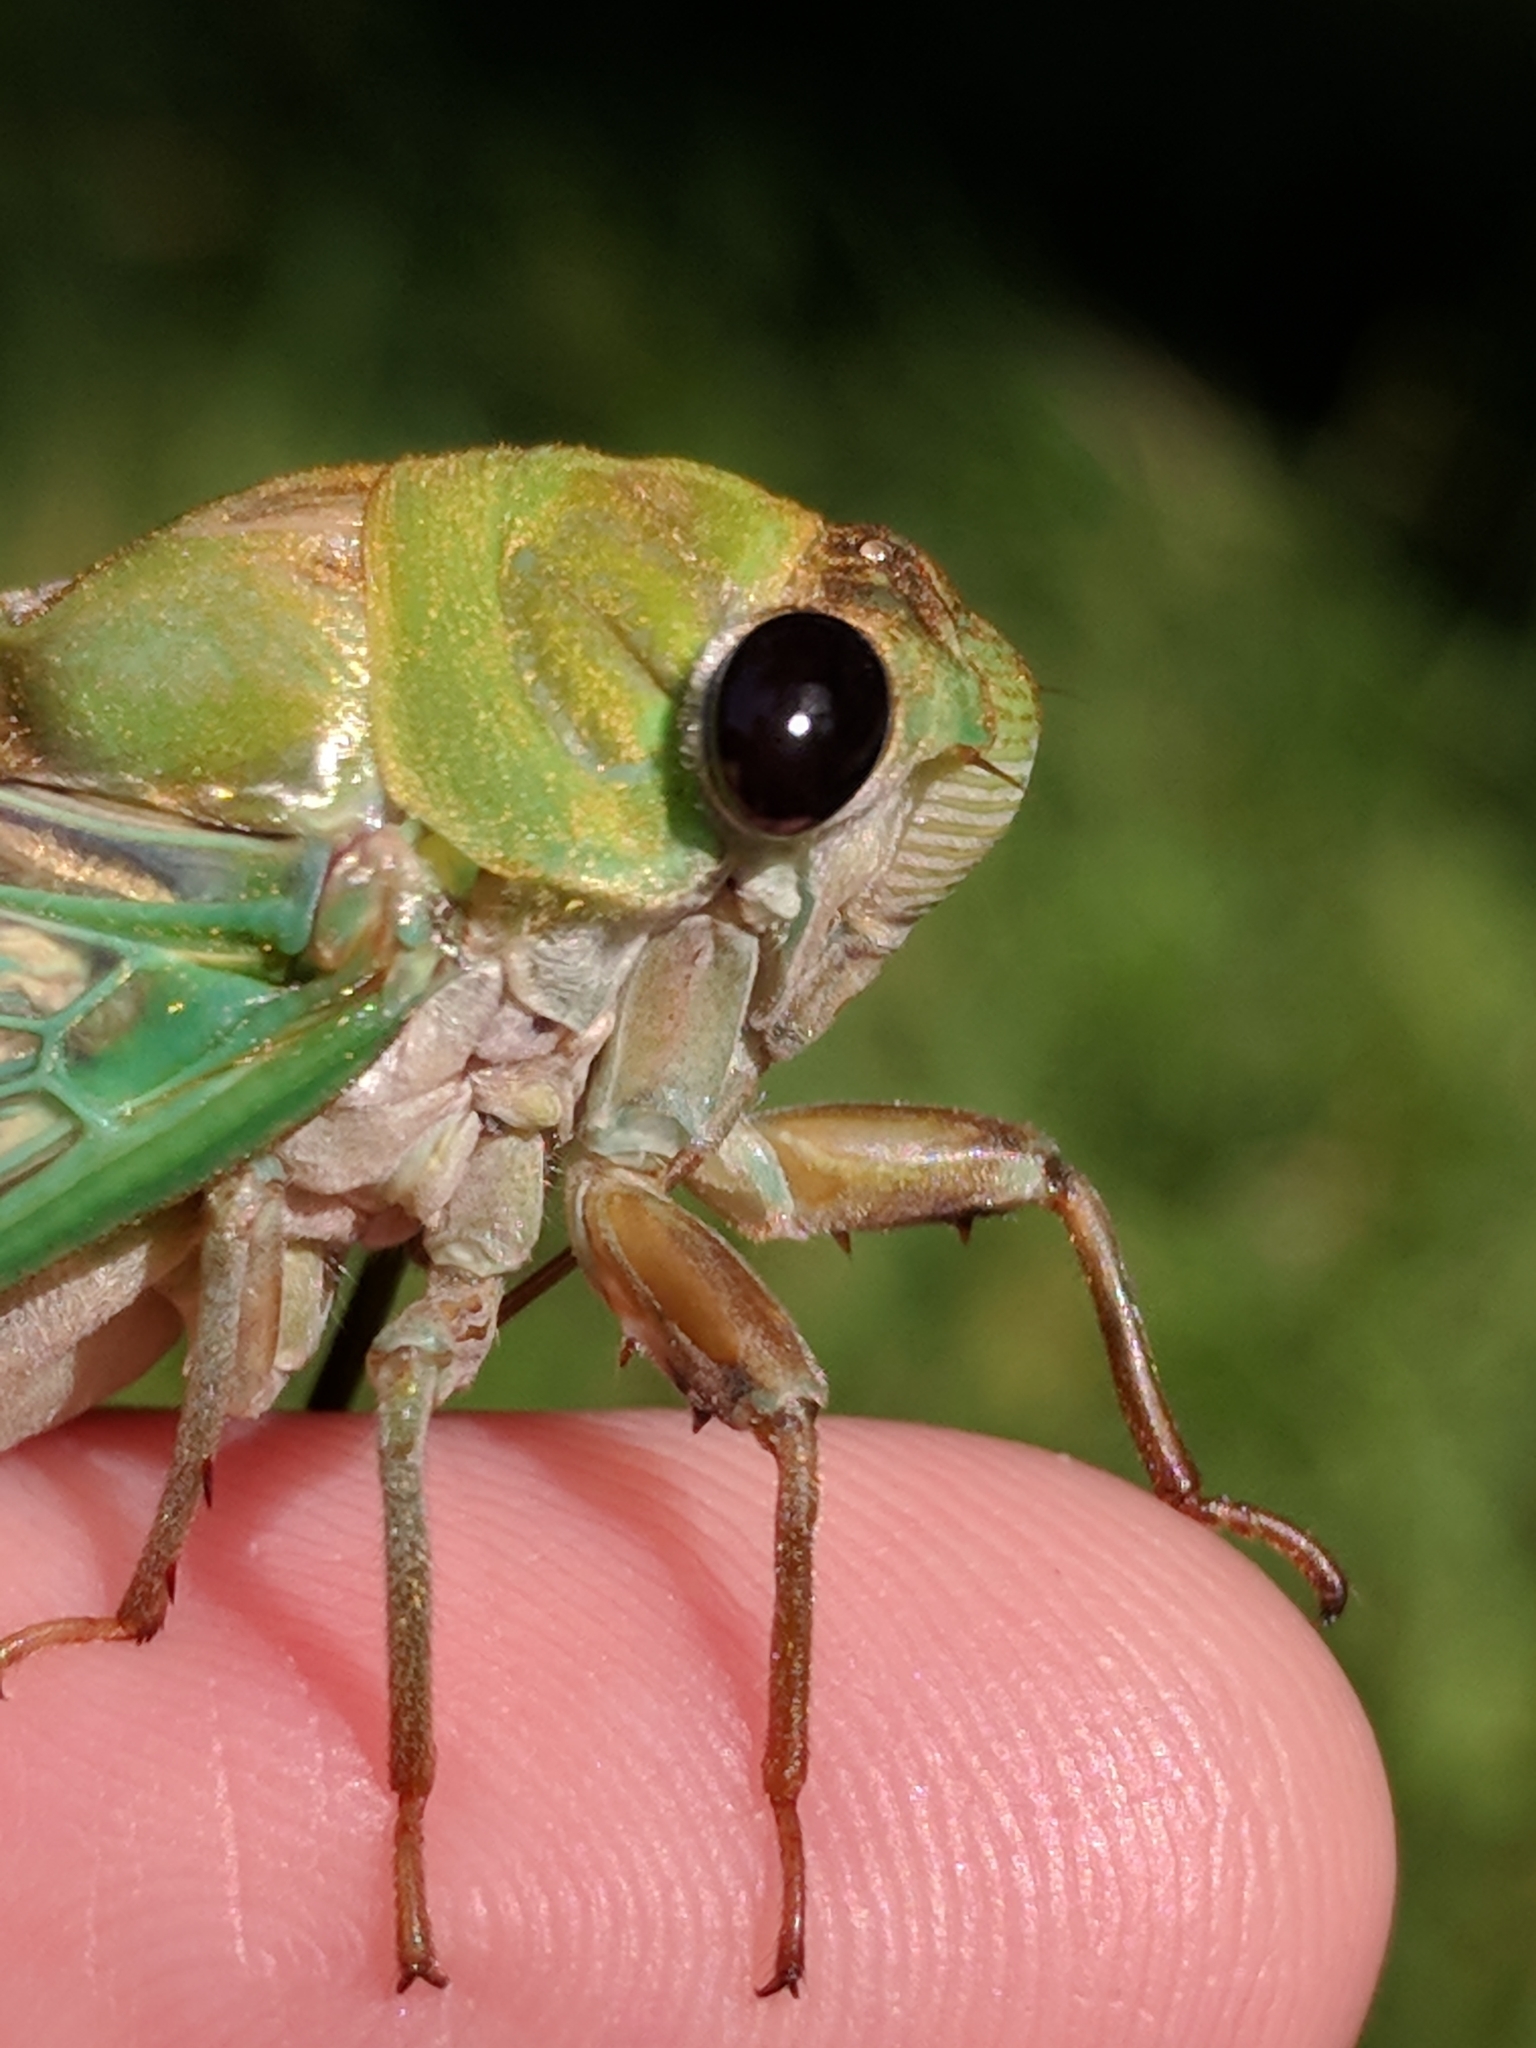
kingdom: Animalia
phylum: Arthropoda
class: Insecta
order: Hemiptera
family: Cicadidae
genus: Neotibicen
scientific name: Neotibicen superbus
